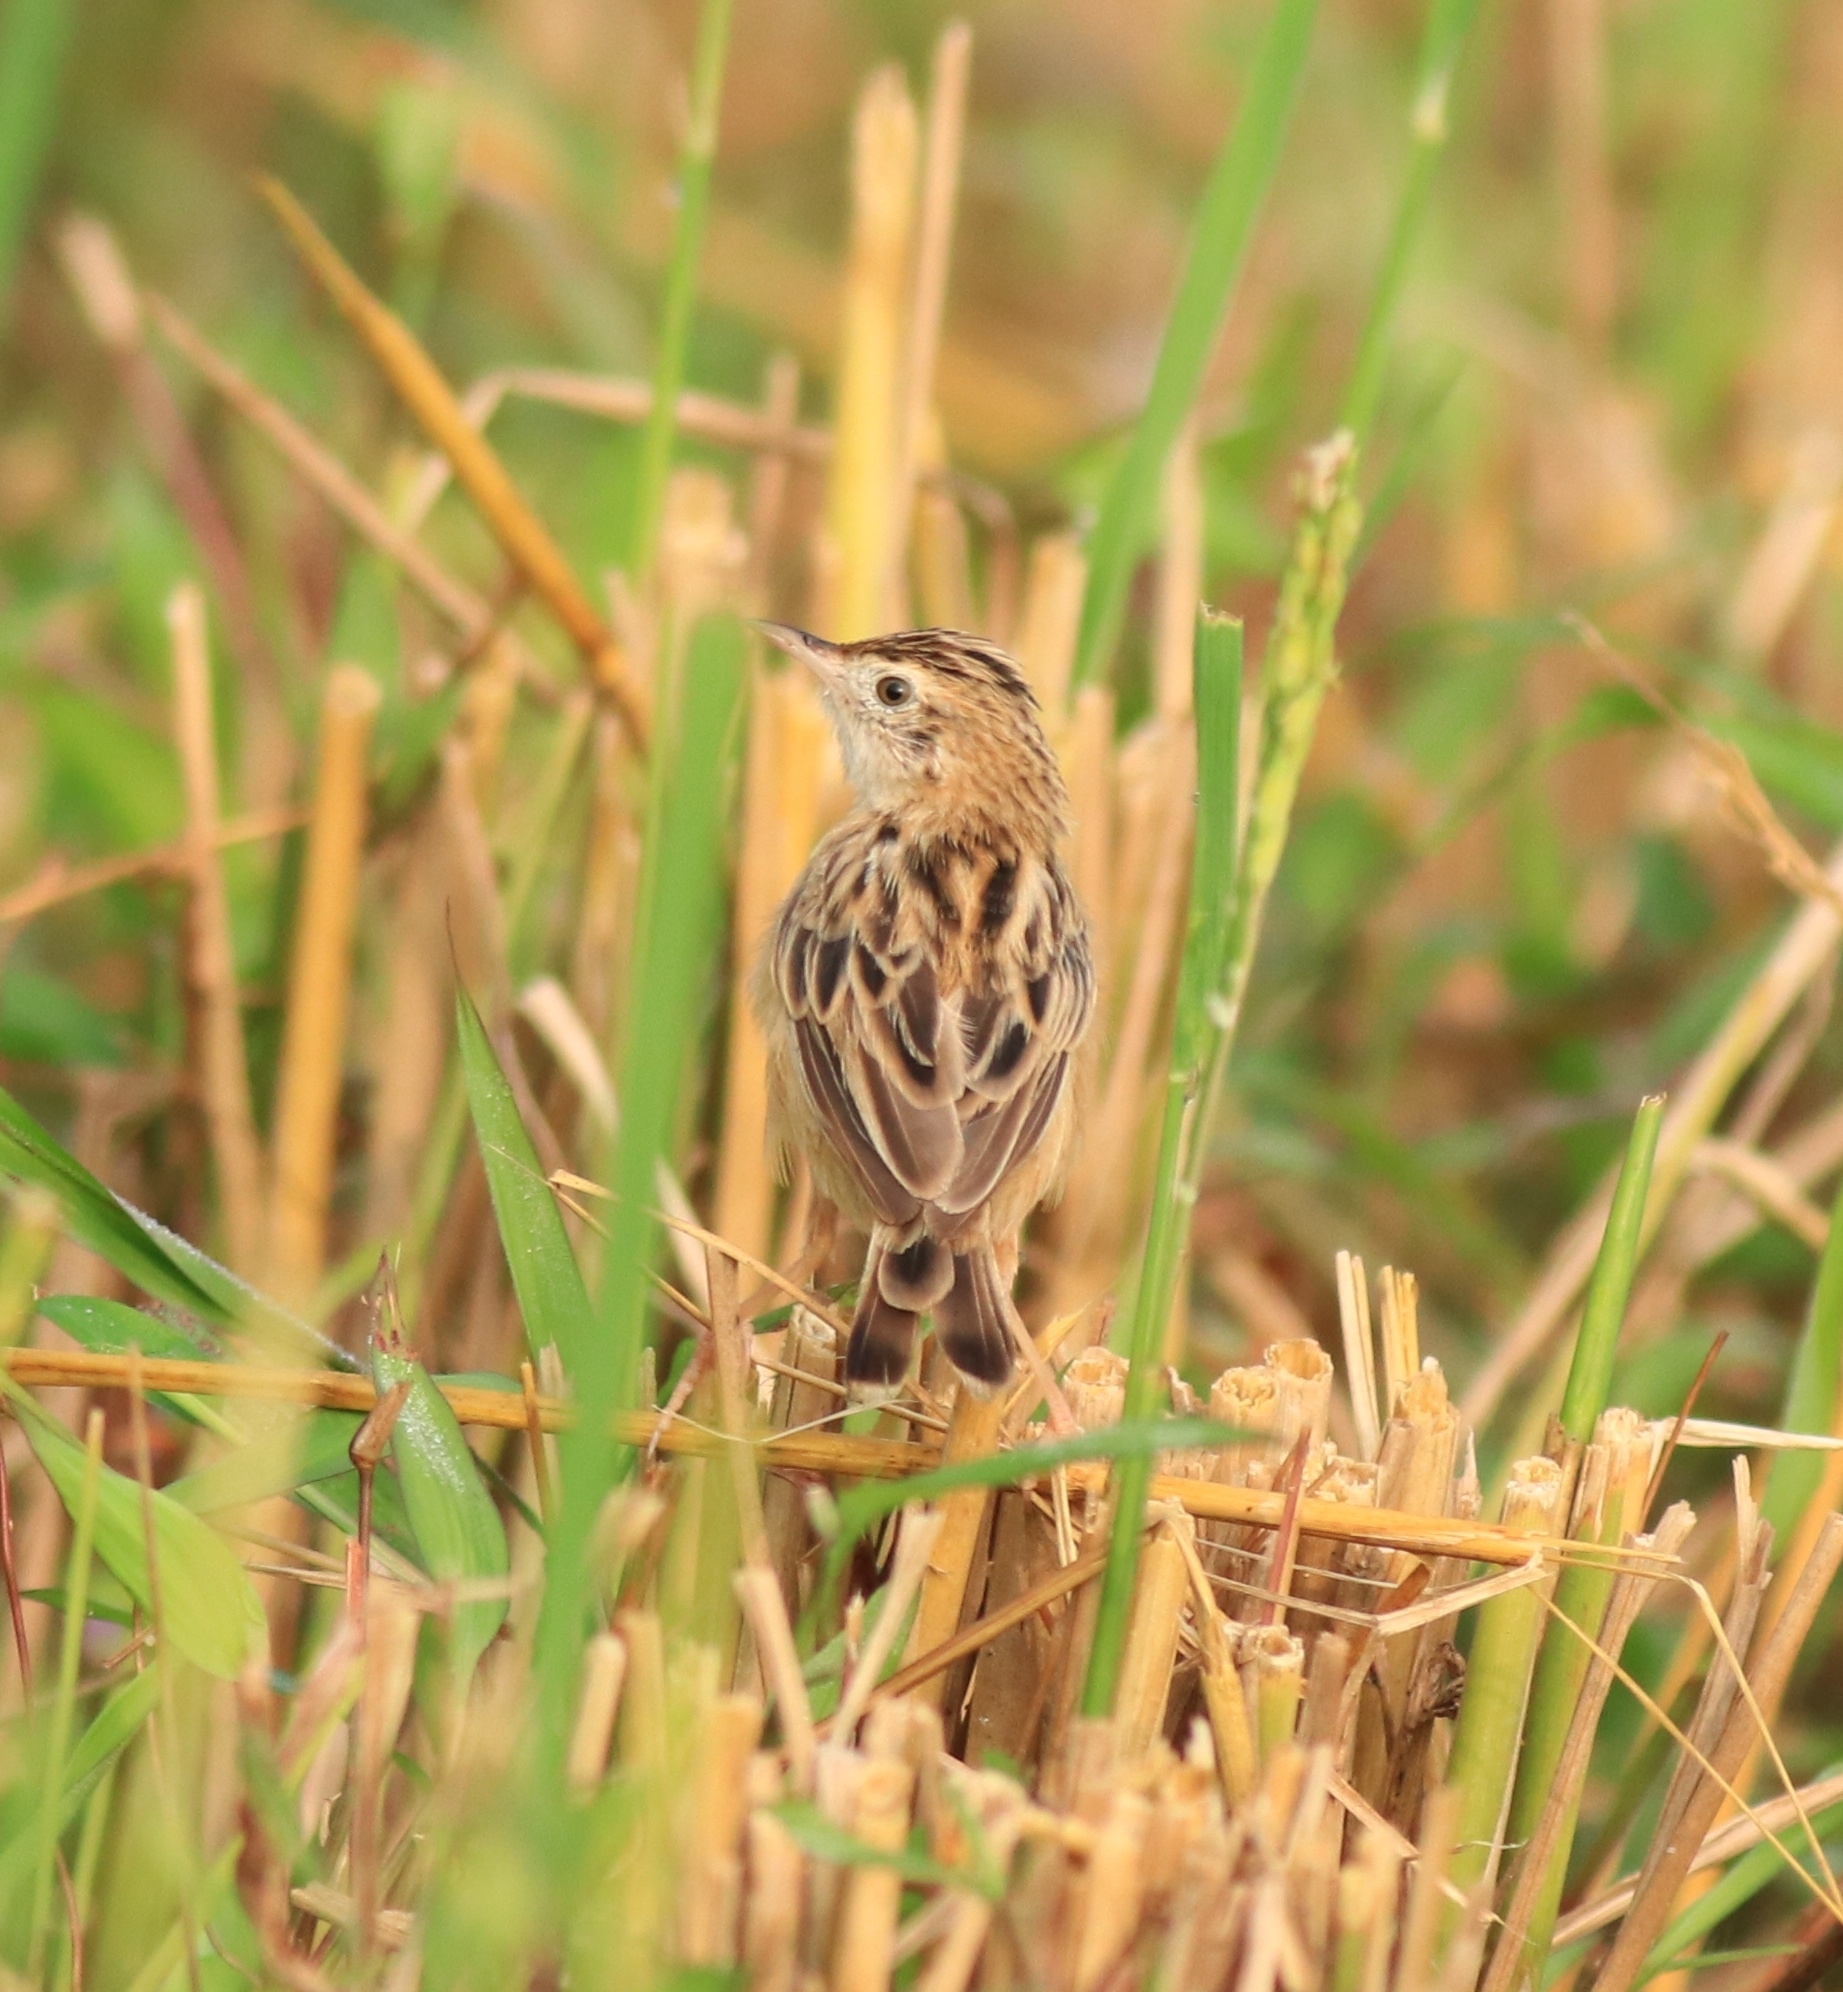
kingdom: Animalia
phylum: Chordata
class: Aves
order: Passeriformes
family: Cisticolidae
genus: Cisticola
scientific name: Cisticola juncidis
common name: Zitting cisticola
